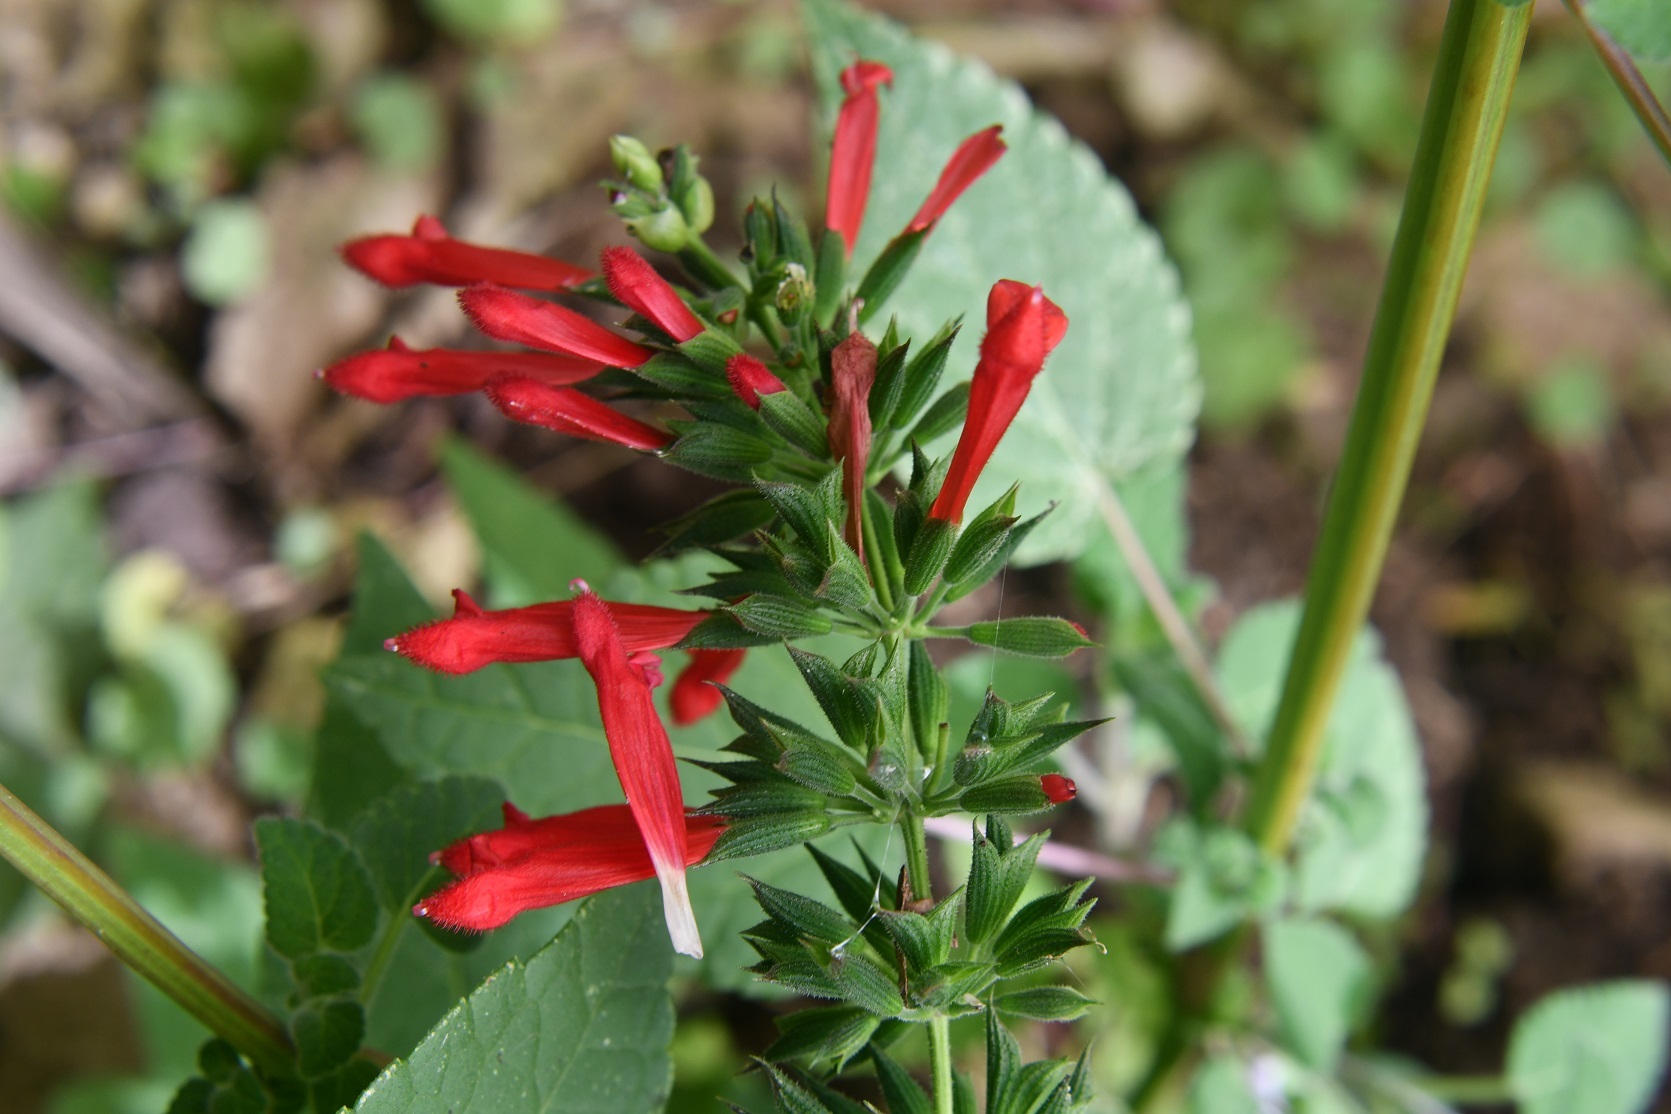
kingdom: Plantae
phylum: Tracheophyta
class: Magnoliopsida
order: Lamiales
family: Lamiaceae
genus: Salvia
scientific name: Salvia holwayi
